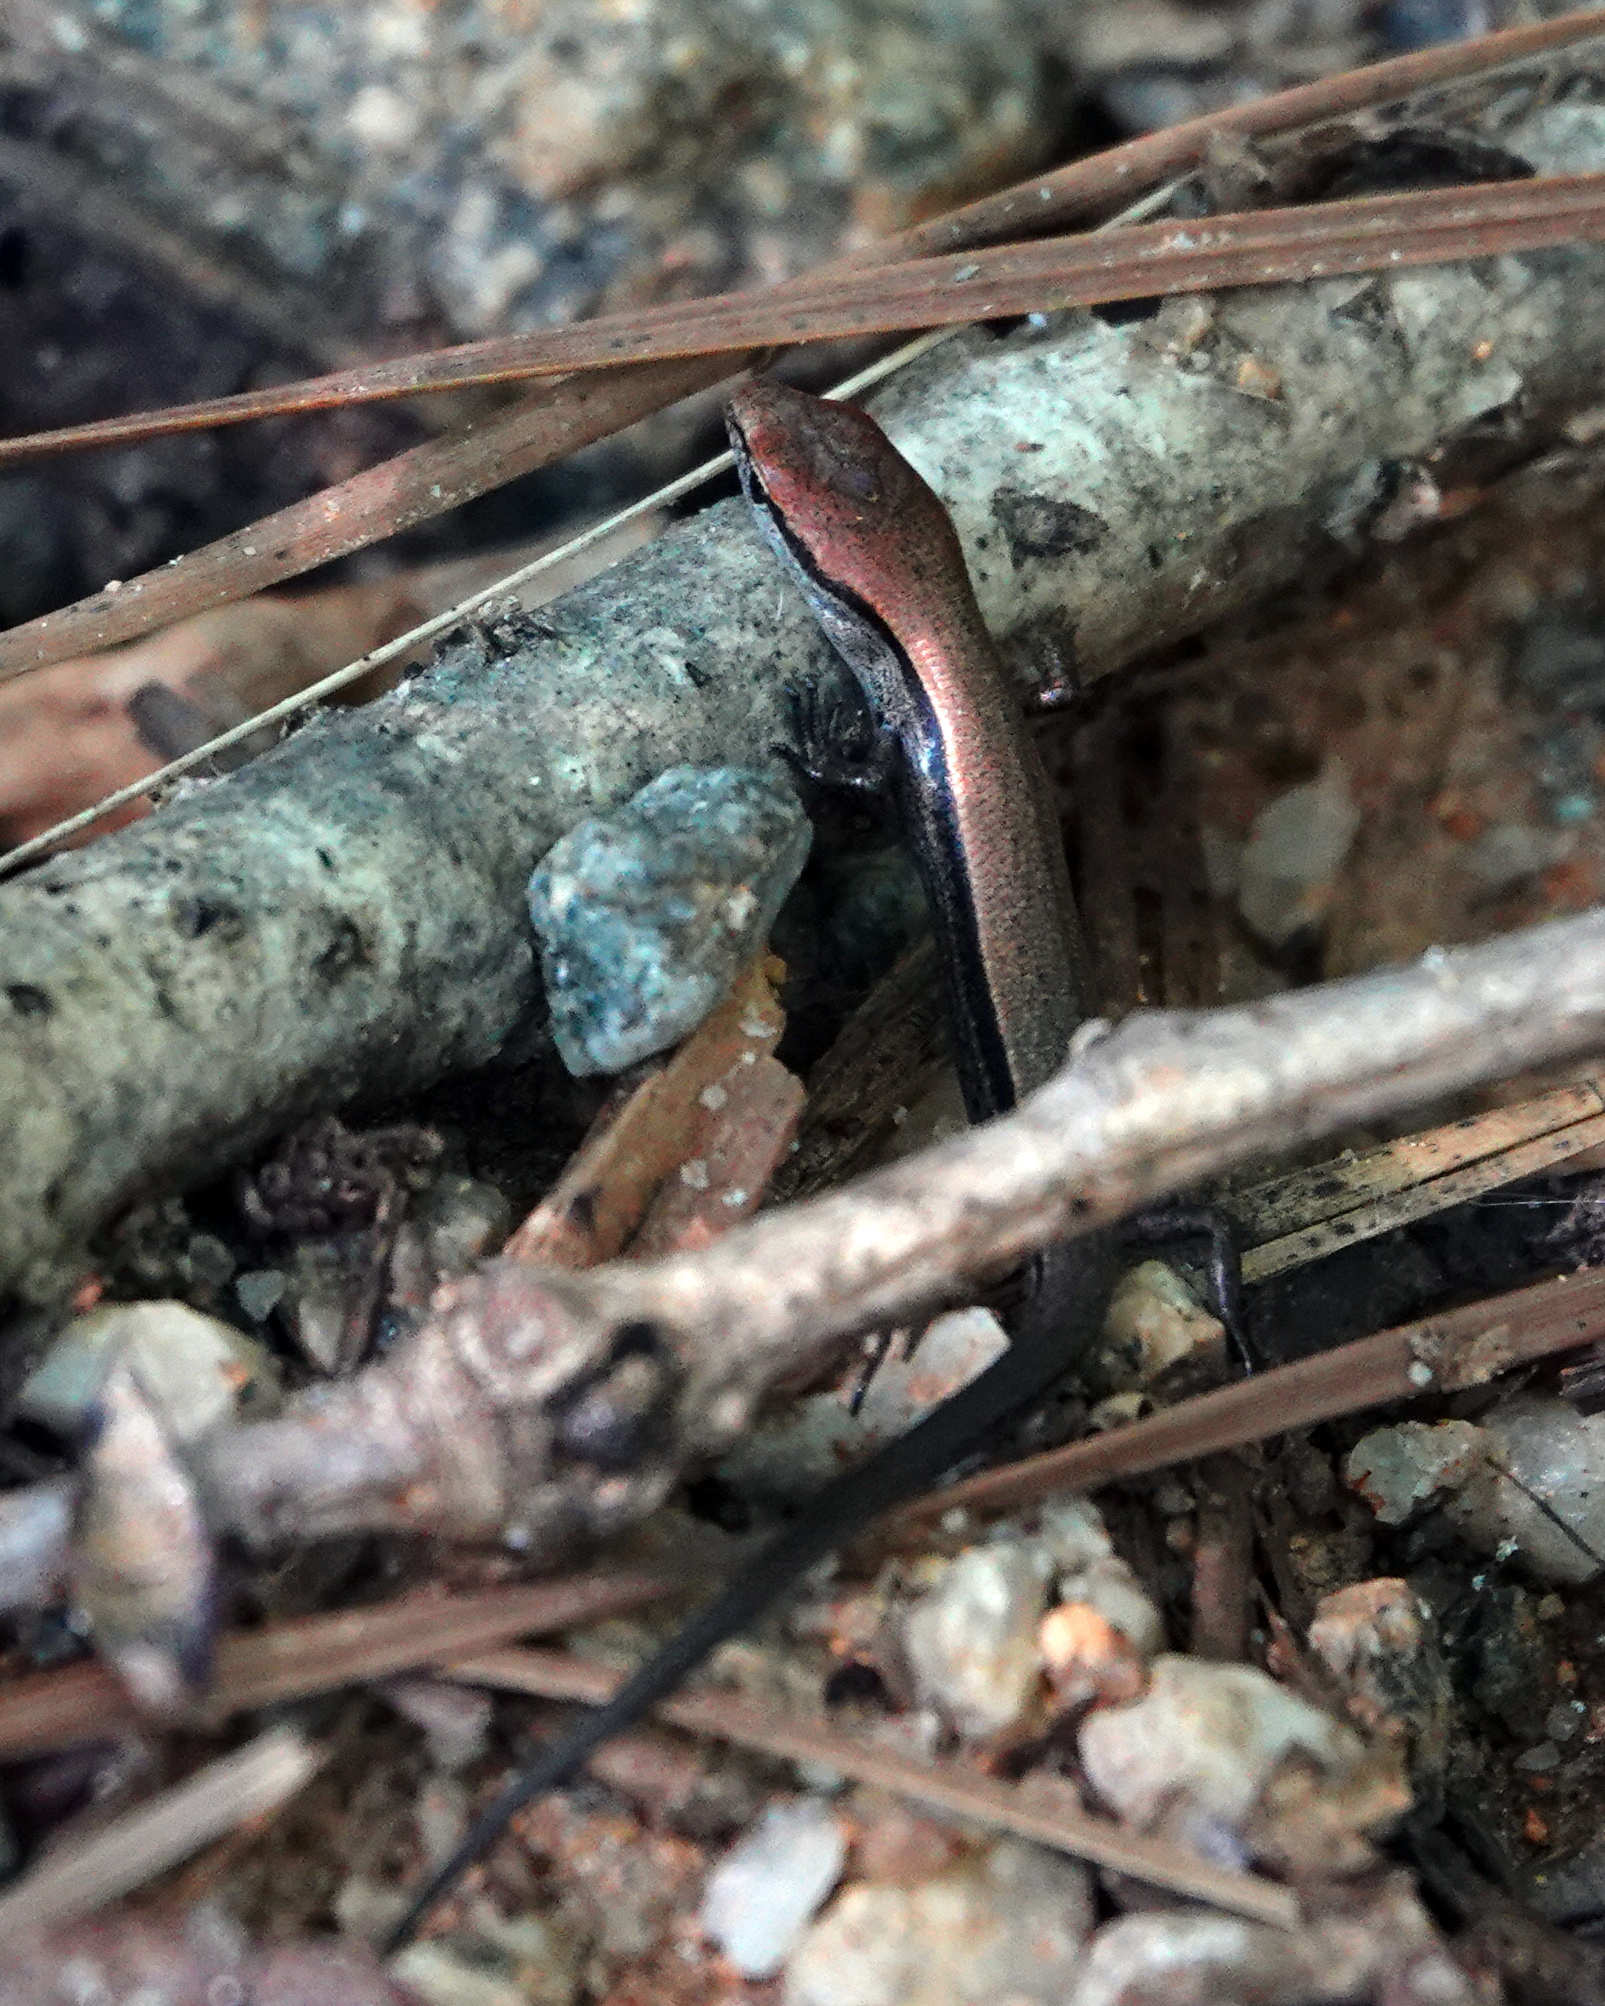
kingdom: Animalia
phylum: Chordata
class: Squamata
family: Scincidae
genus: Scincella
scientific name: Scincella lateralis
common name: Ground skink
